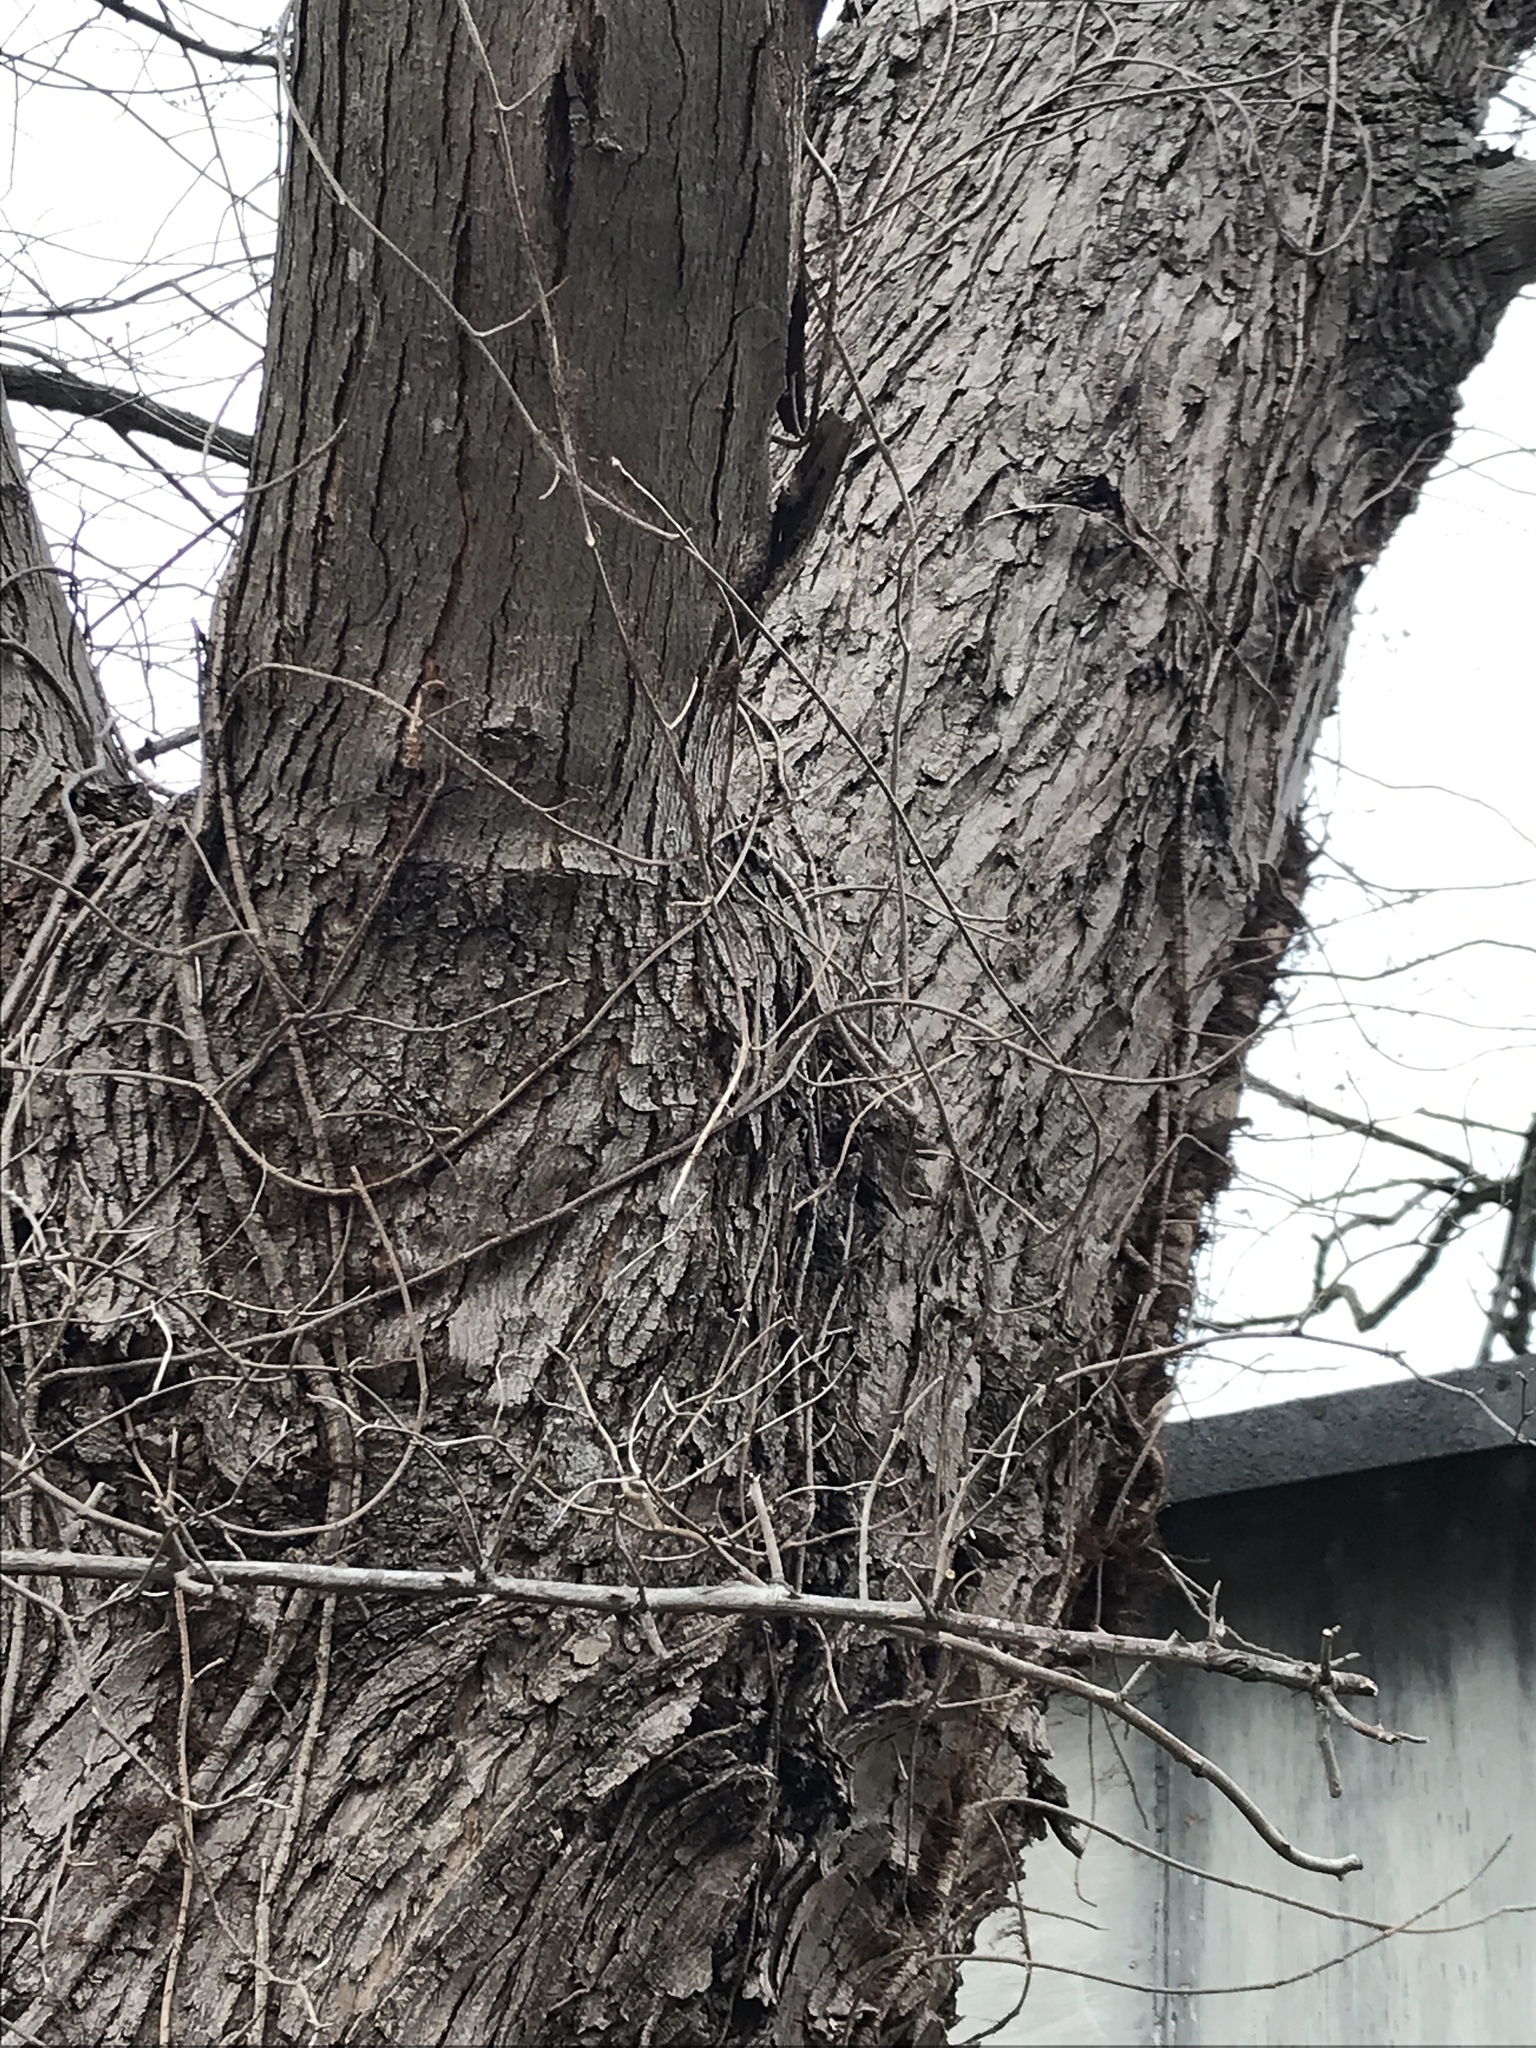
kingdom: Plantae
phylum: Tracheophyta
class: Magnoliopsida
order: Sapindales
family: Sapindaceae
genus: Acer
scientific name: Acer saccharinum
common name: Silver maple
